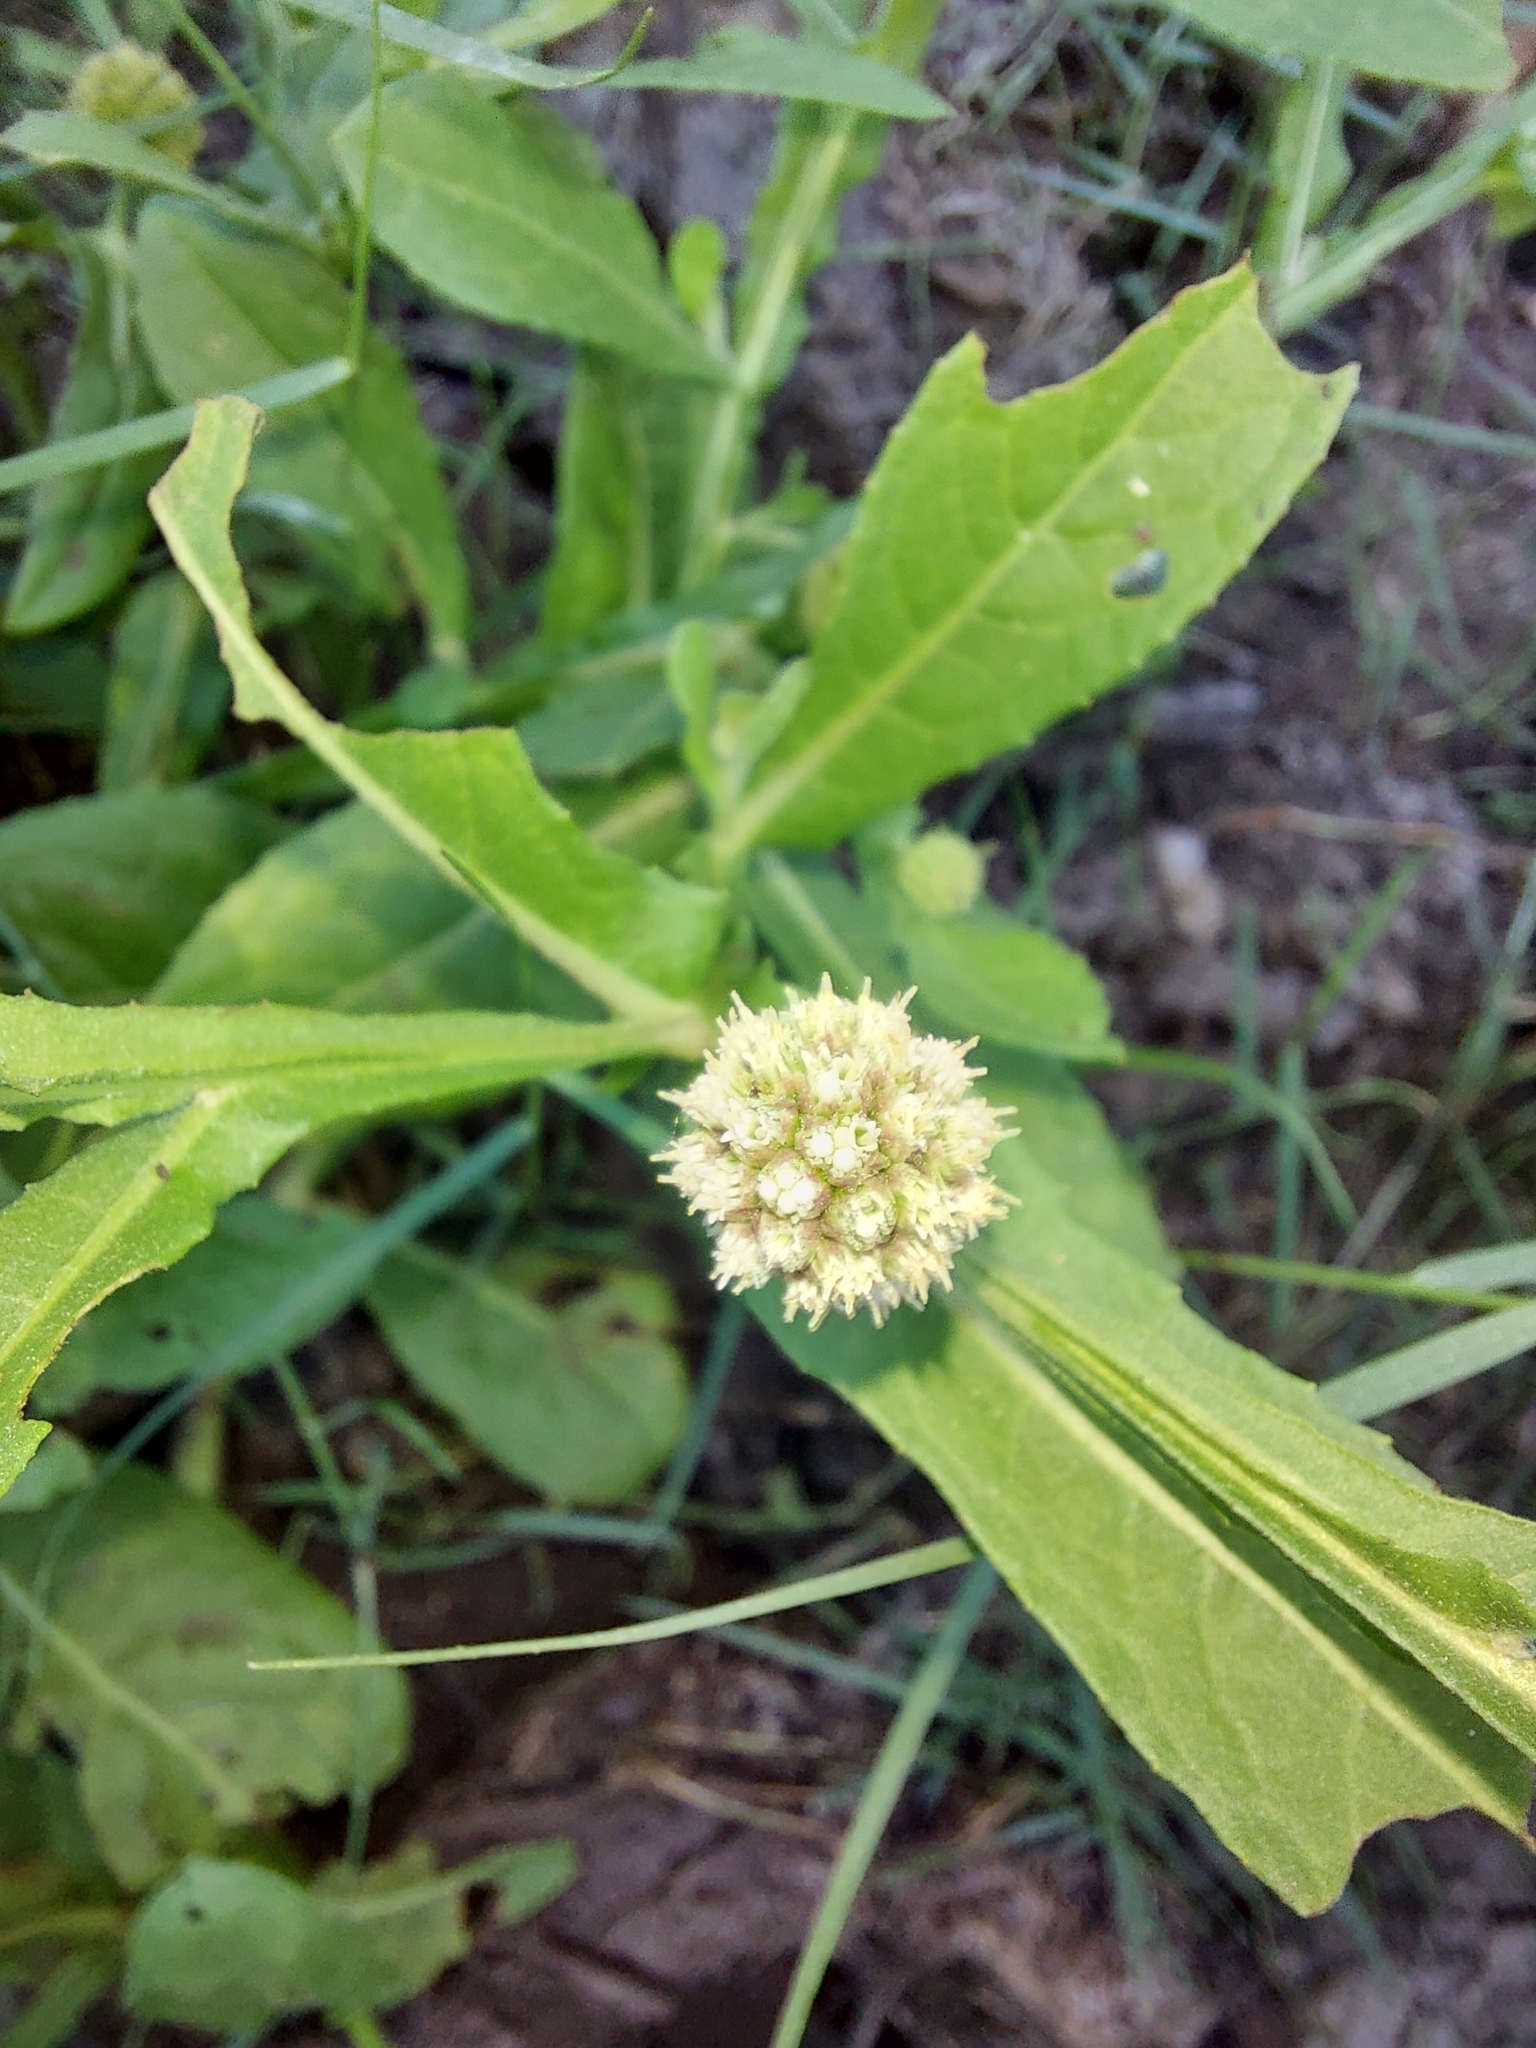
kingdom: Plantae
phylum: Tracheophyta
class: Magnoliopsida
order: Asterales
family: Asteraceae
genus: Sphaeranthus
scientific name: Sphaeranthus africanus
